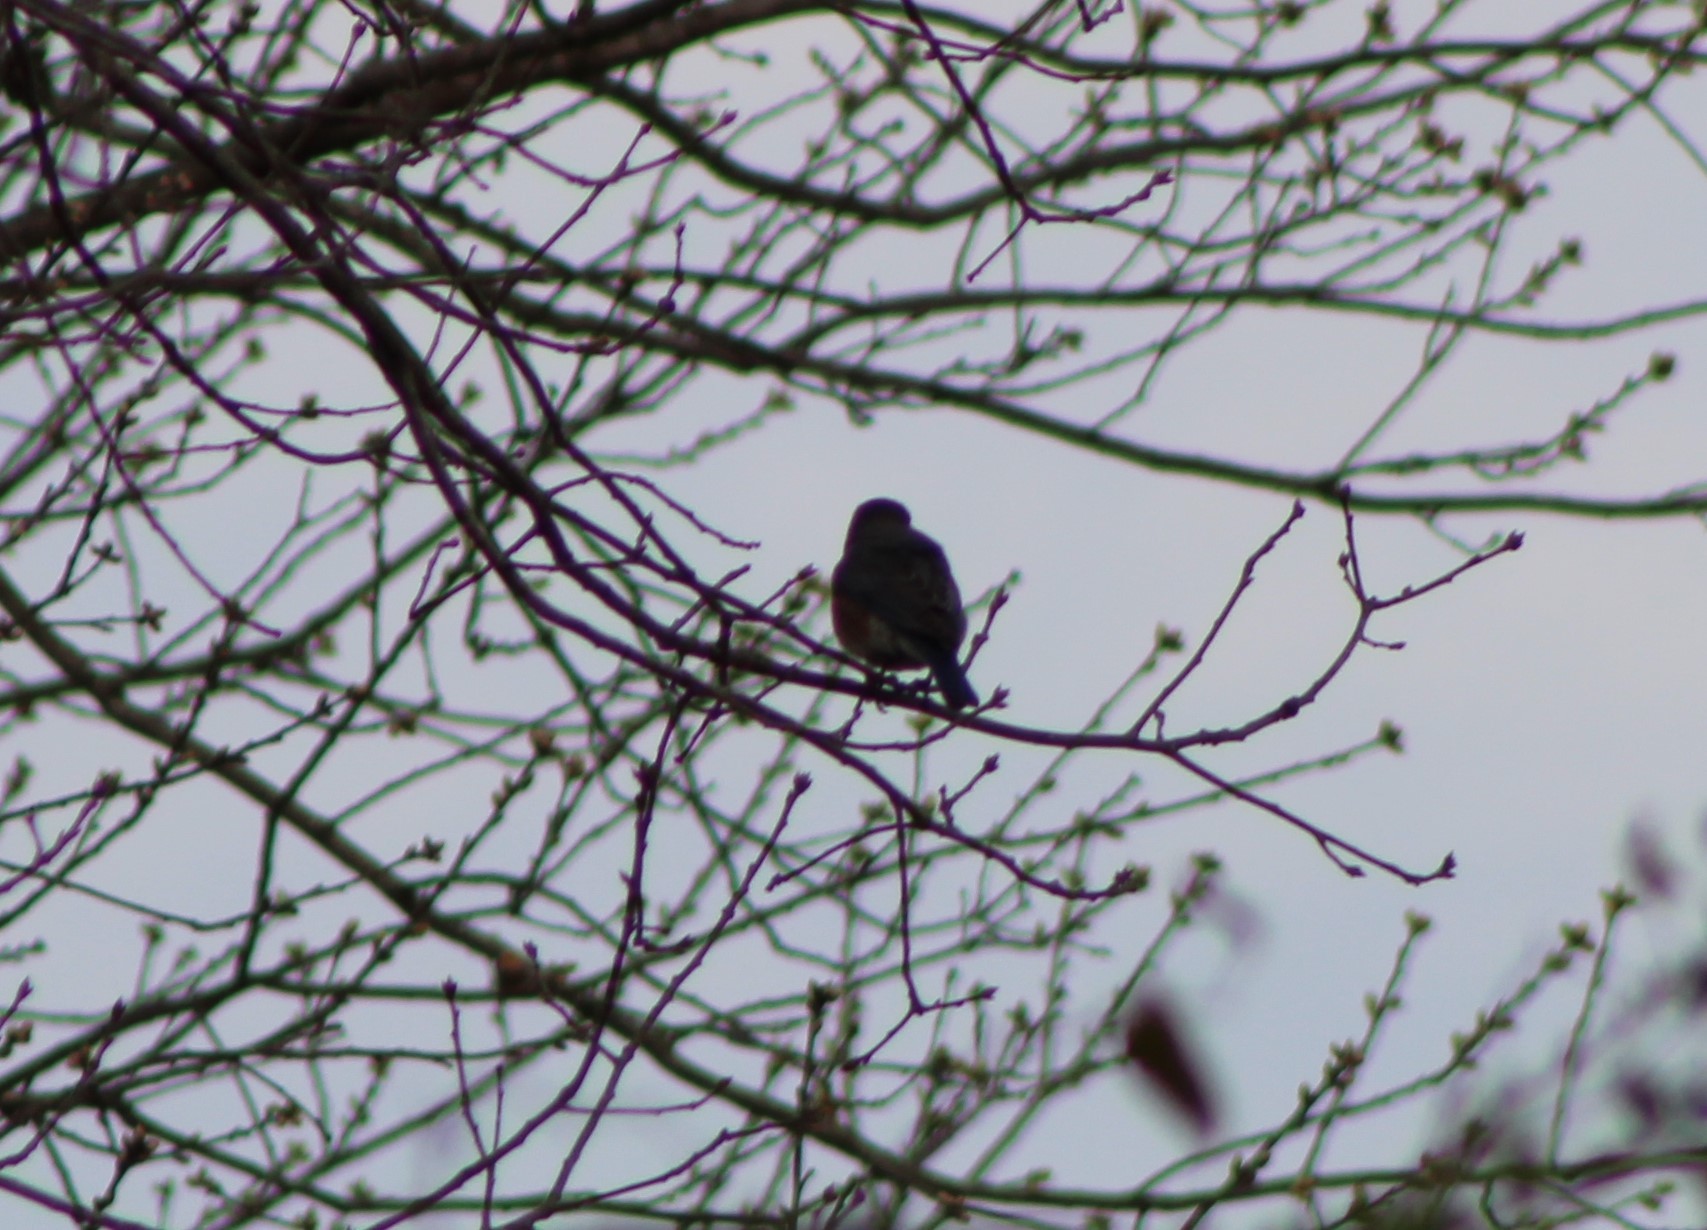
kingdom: Animalia
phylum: Chordata
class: Aves
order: Passeriformes
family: Turdidae
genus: Sialia
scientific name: Sialia sialis
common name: Eastern bluebird
